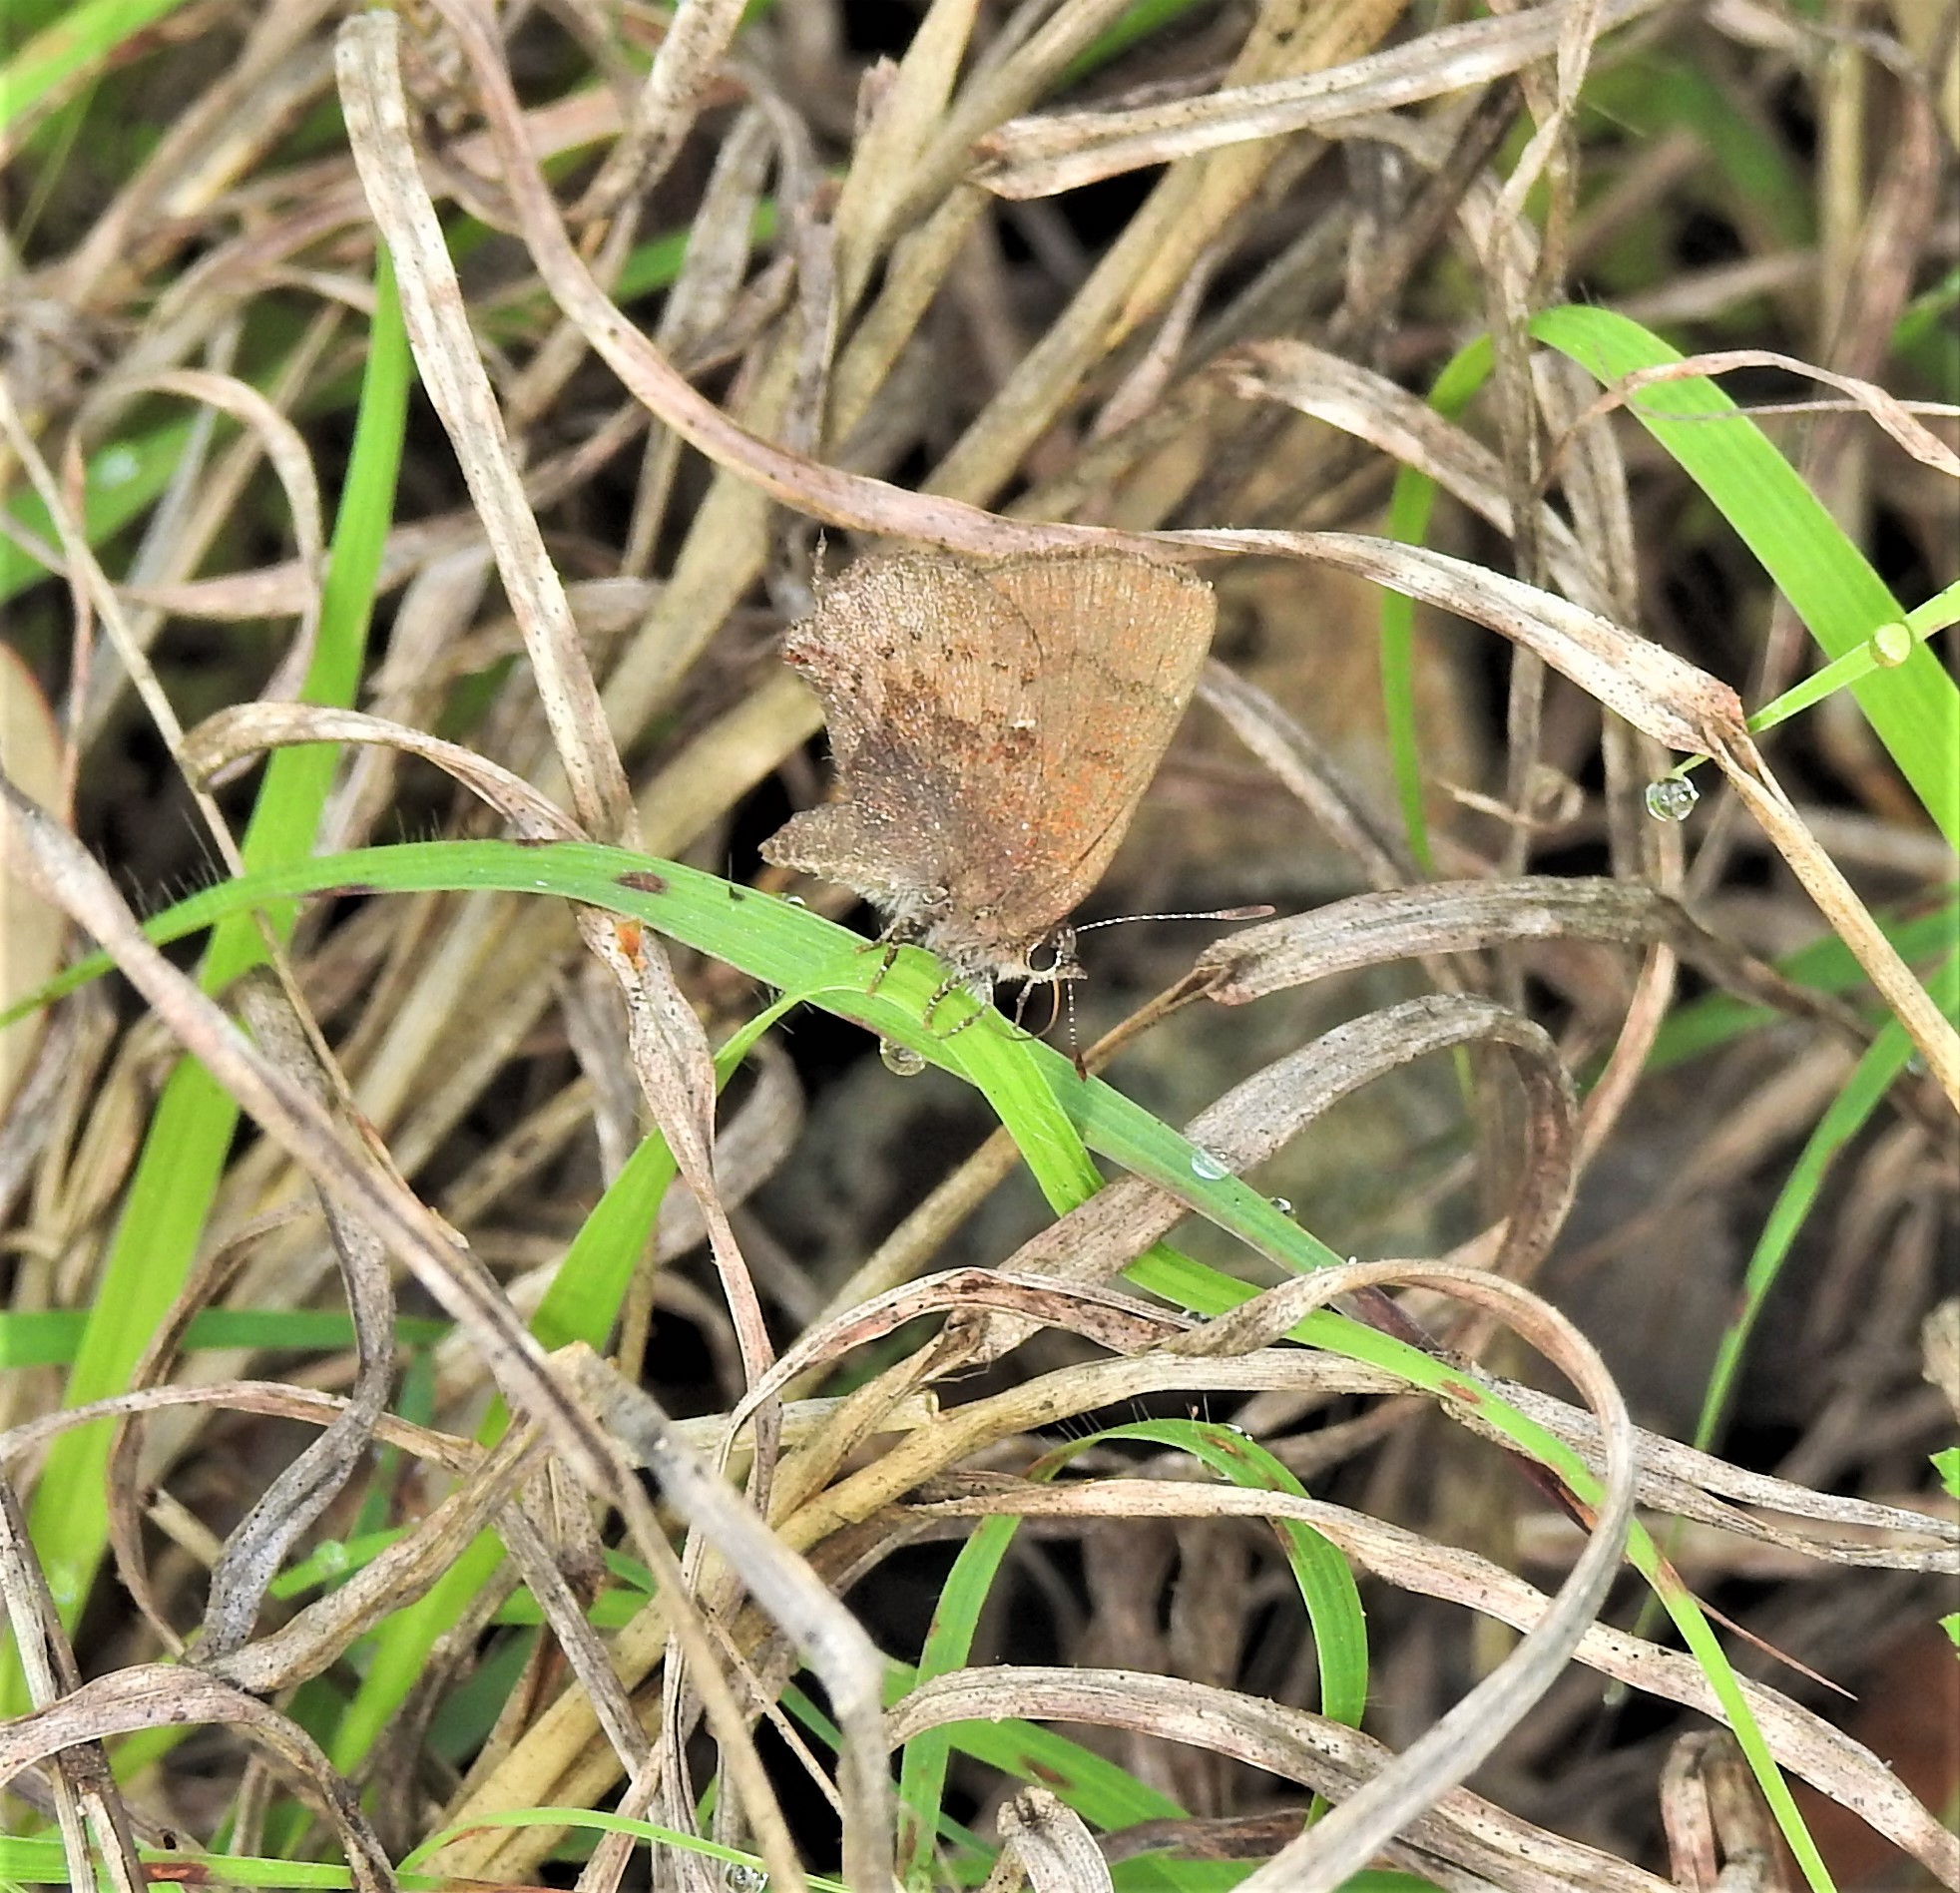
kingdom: Animalia
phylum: Arthropoda
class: Insecta
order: Lepidoptera
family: Lycaenidae
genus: Incisalia
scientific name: Incisalia henrici
